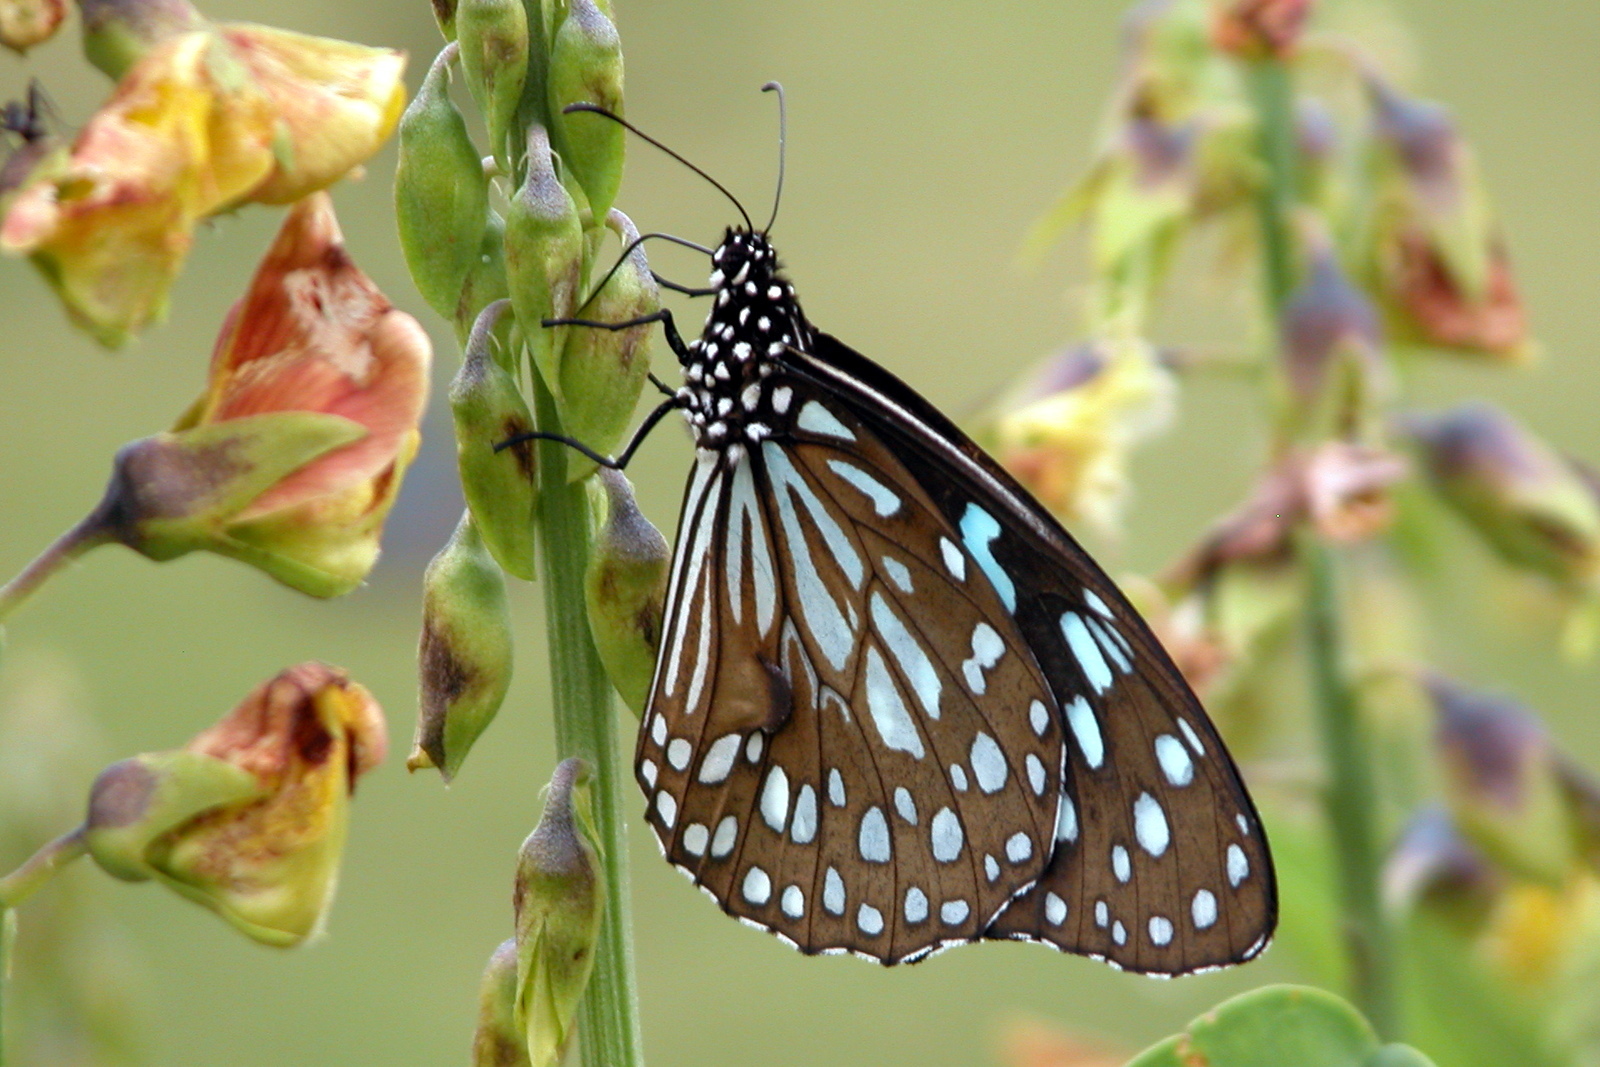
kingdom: Animalia
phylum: Arthropoda
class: Insecta
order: Lepidoptera
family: Nymphalidae
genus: Tirumala
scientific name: Tirumala limniace
